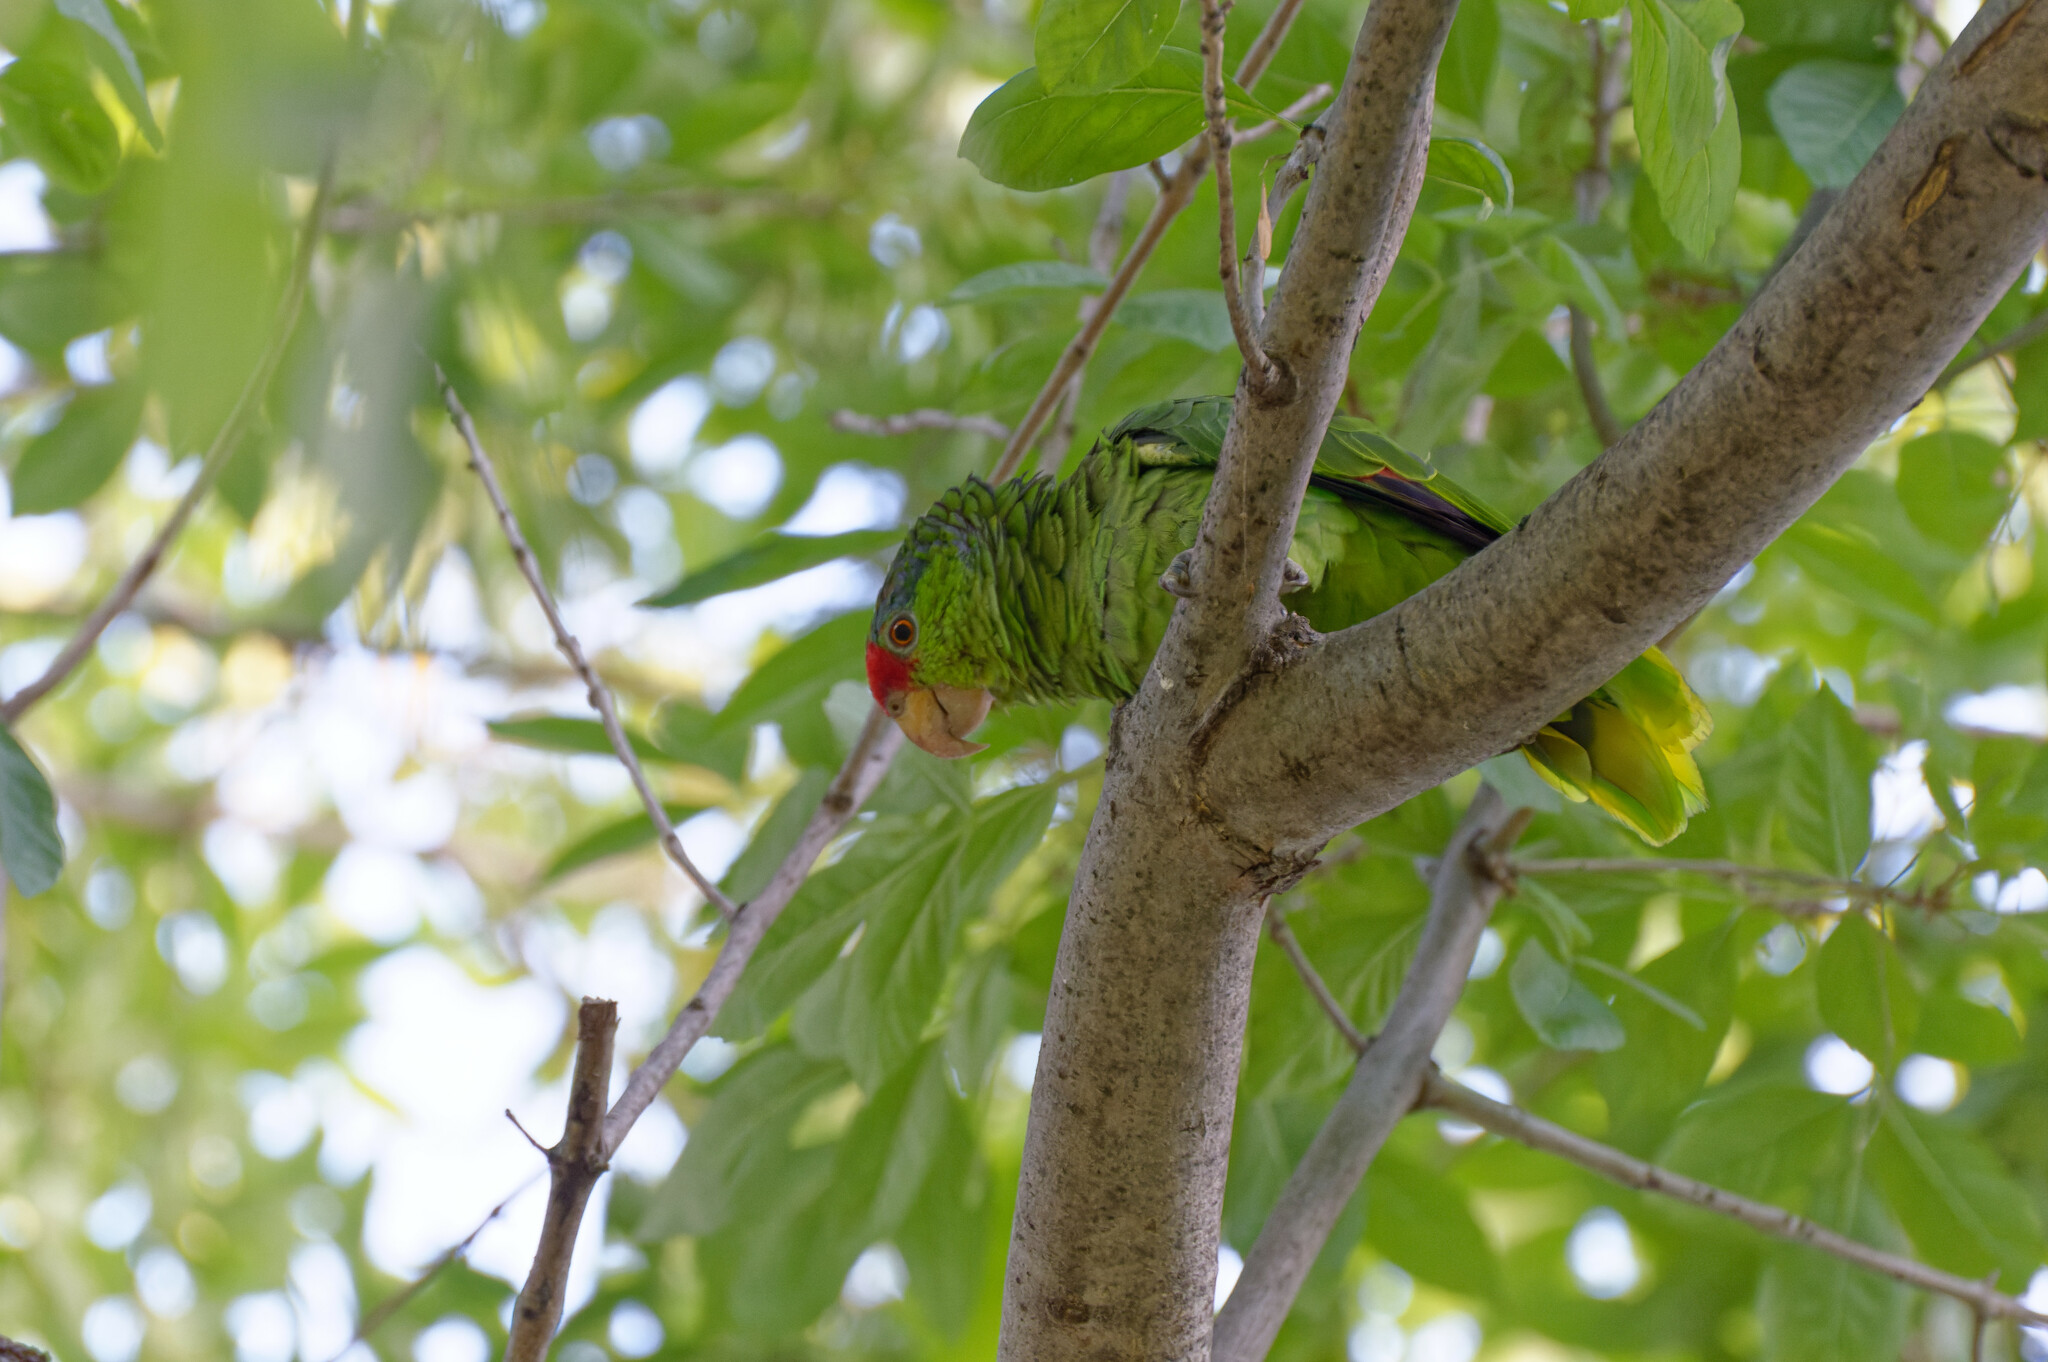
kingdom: Animalia
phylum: Chordata
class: Aves
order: Psittaciformes
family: Psittacidae
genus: Amazona
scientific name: Amazona
